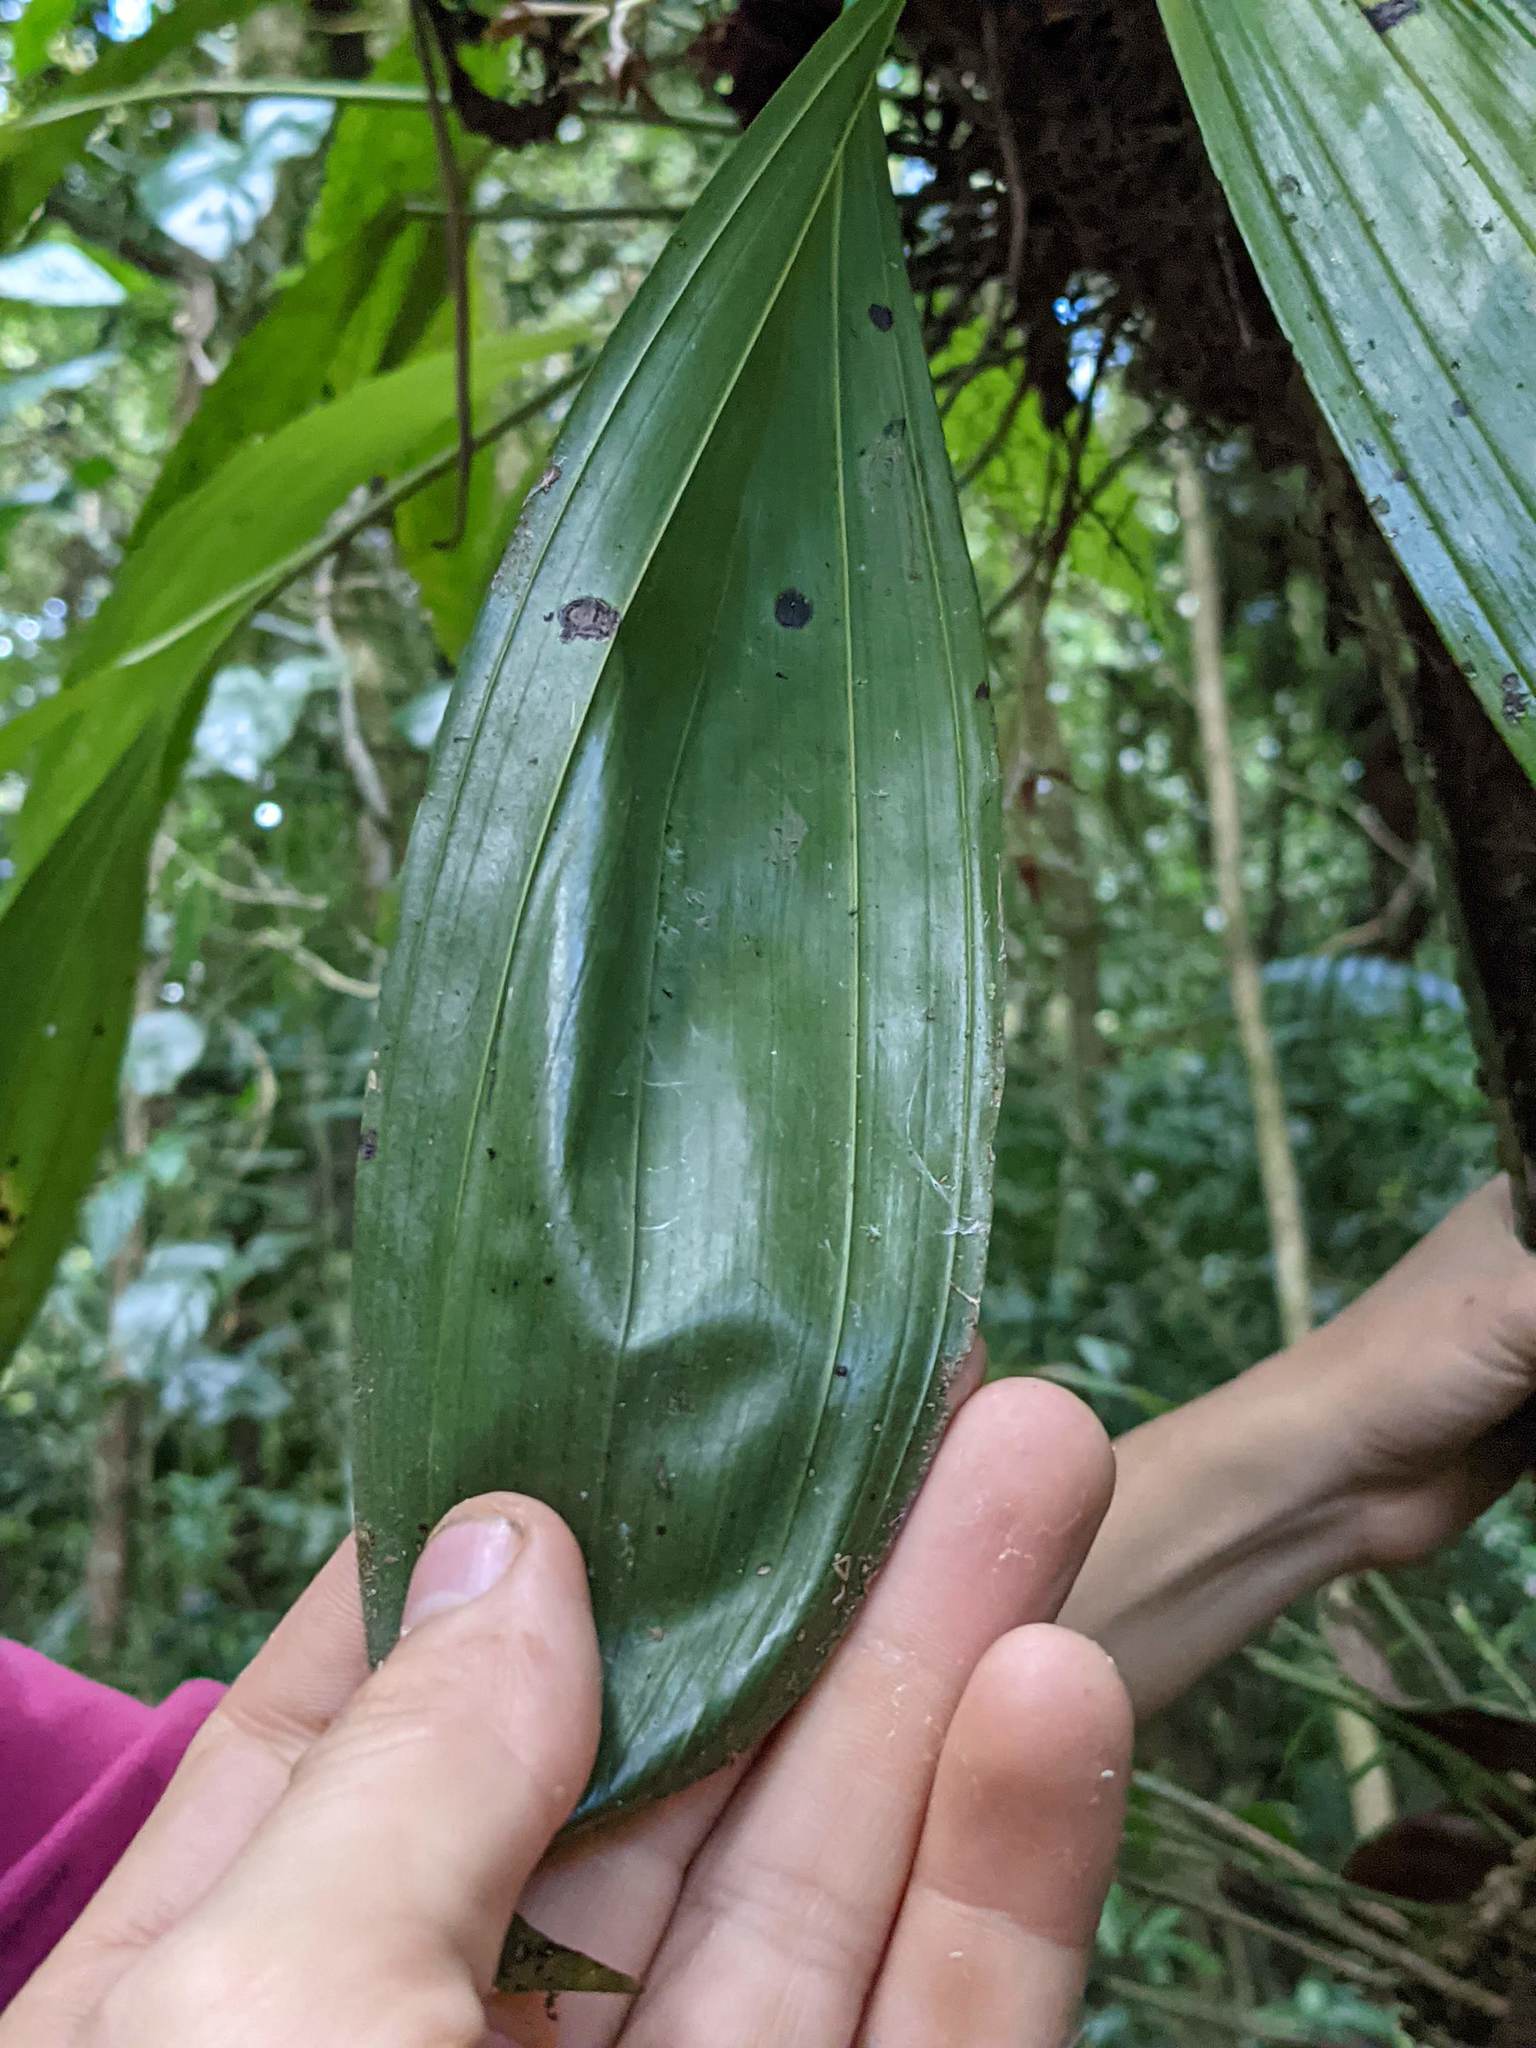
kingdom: Plantae
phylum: Tracheophyta
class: Liliopsida
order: Asparagales
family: Orchidaceae
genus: Xylobium
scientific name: Xylobium elongatum
